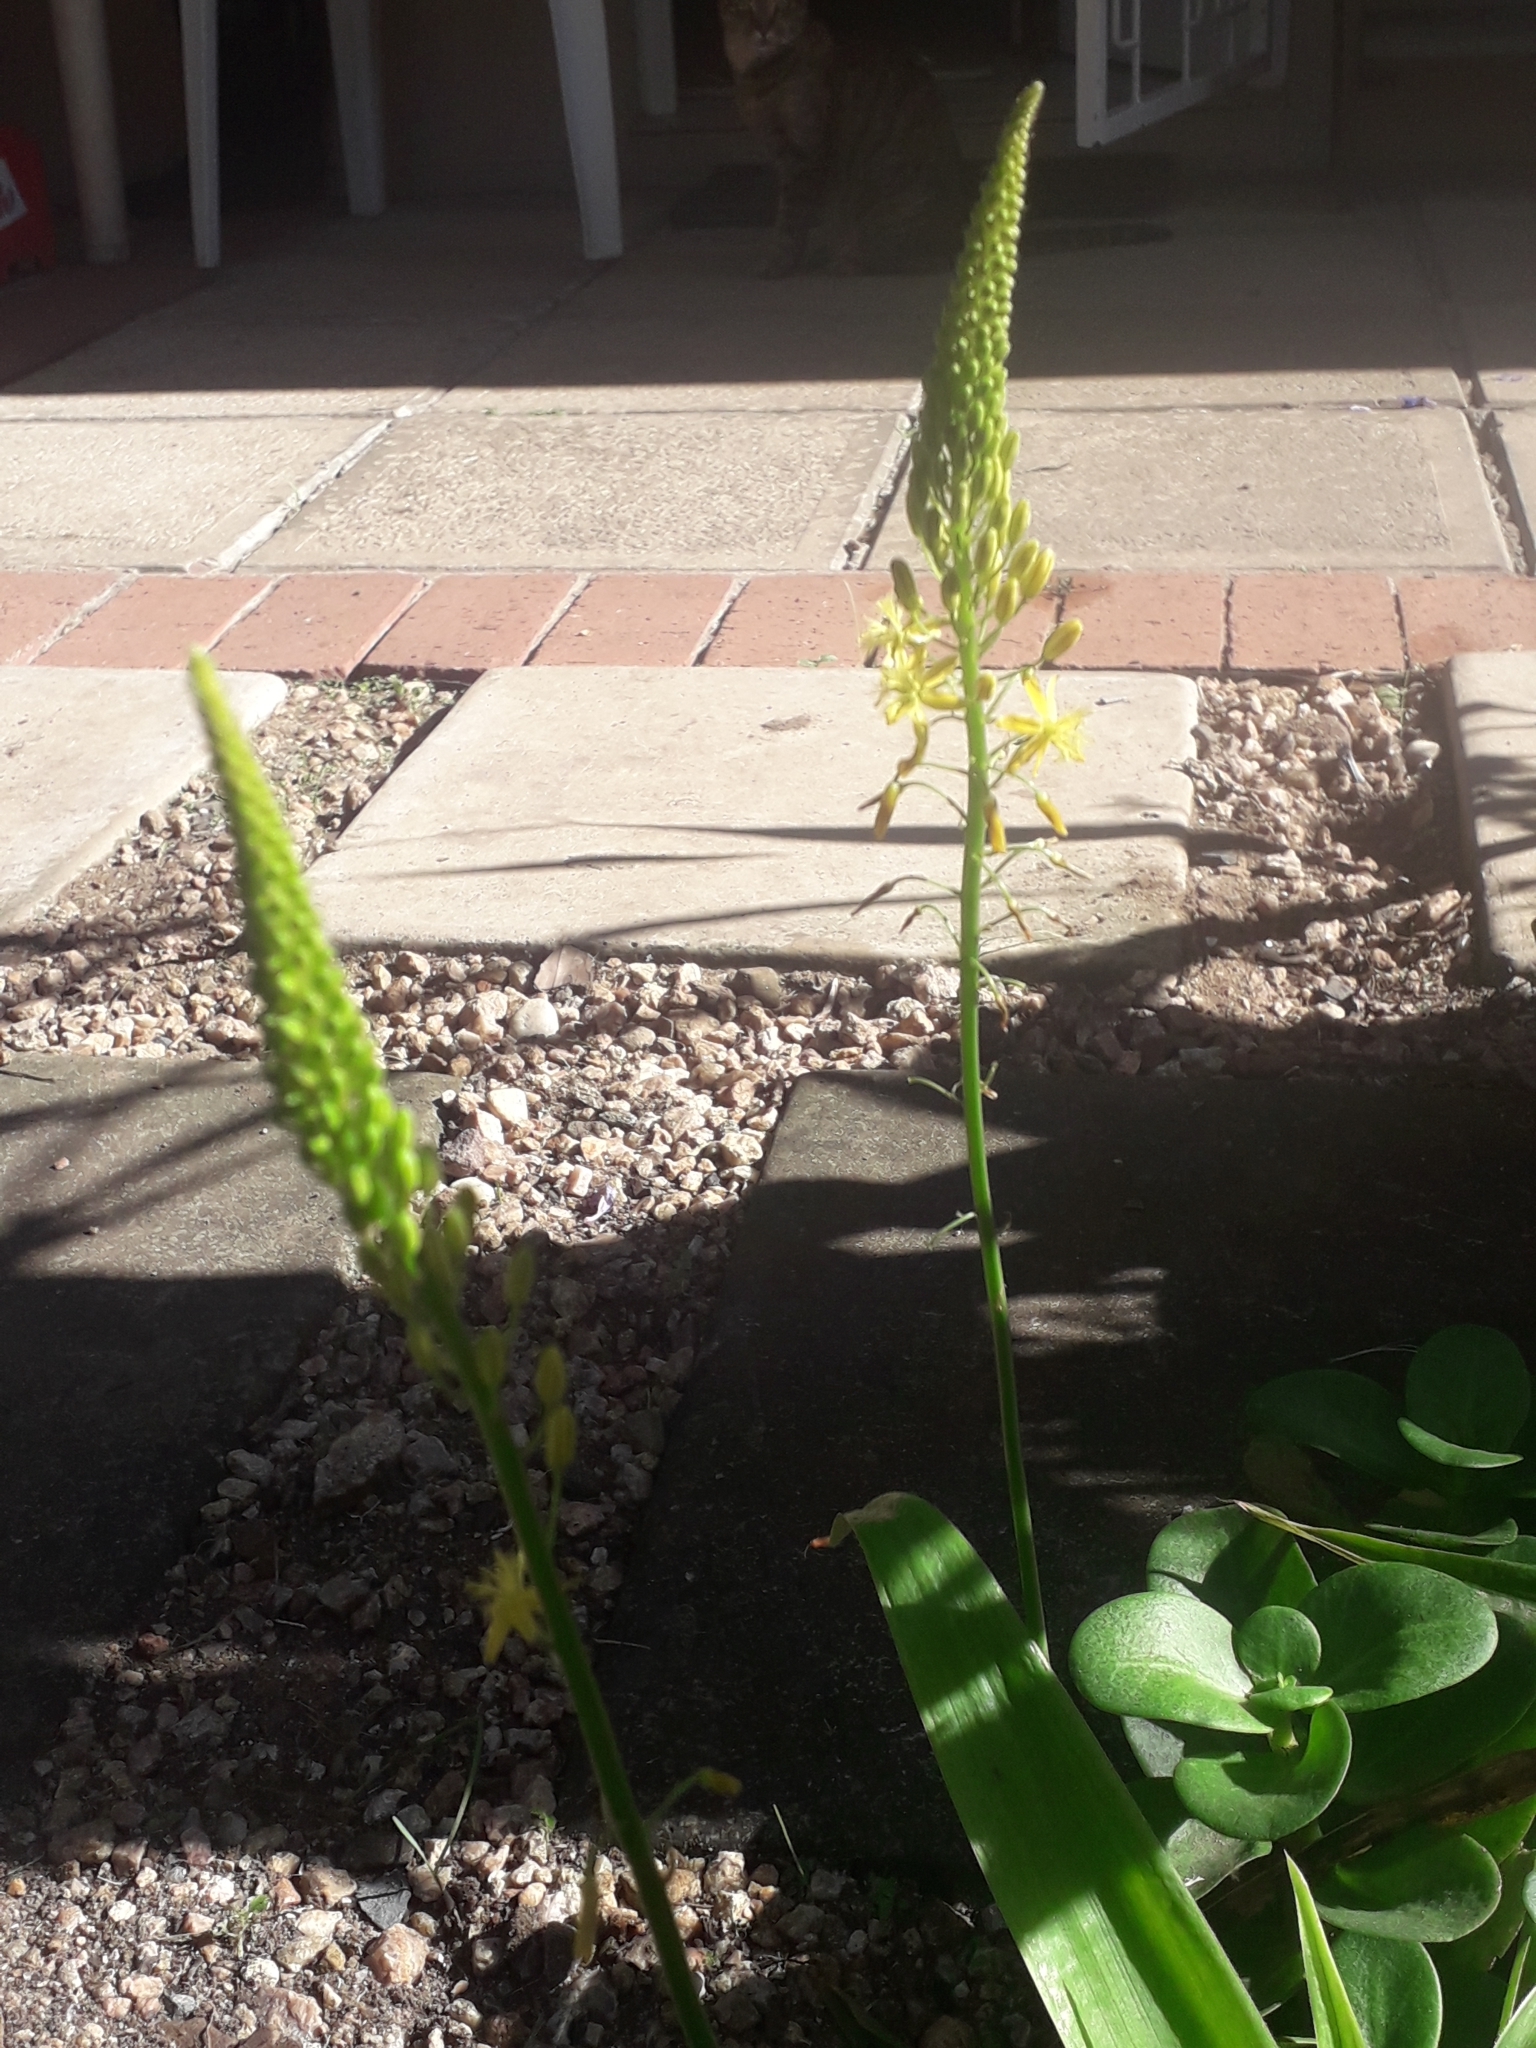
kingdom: Plantae
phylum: Tracheophyta
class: Liliopsida
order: Asparagales
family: Asphodelaceae
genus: Bulbine
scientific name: Bulbine latifolia
